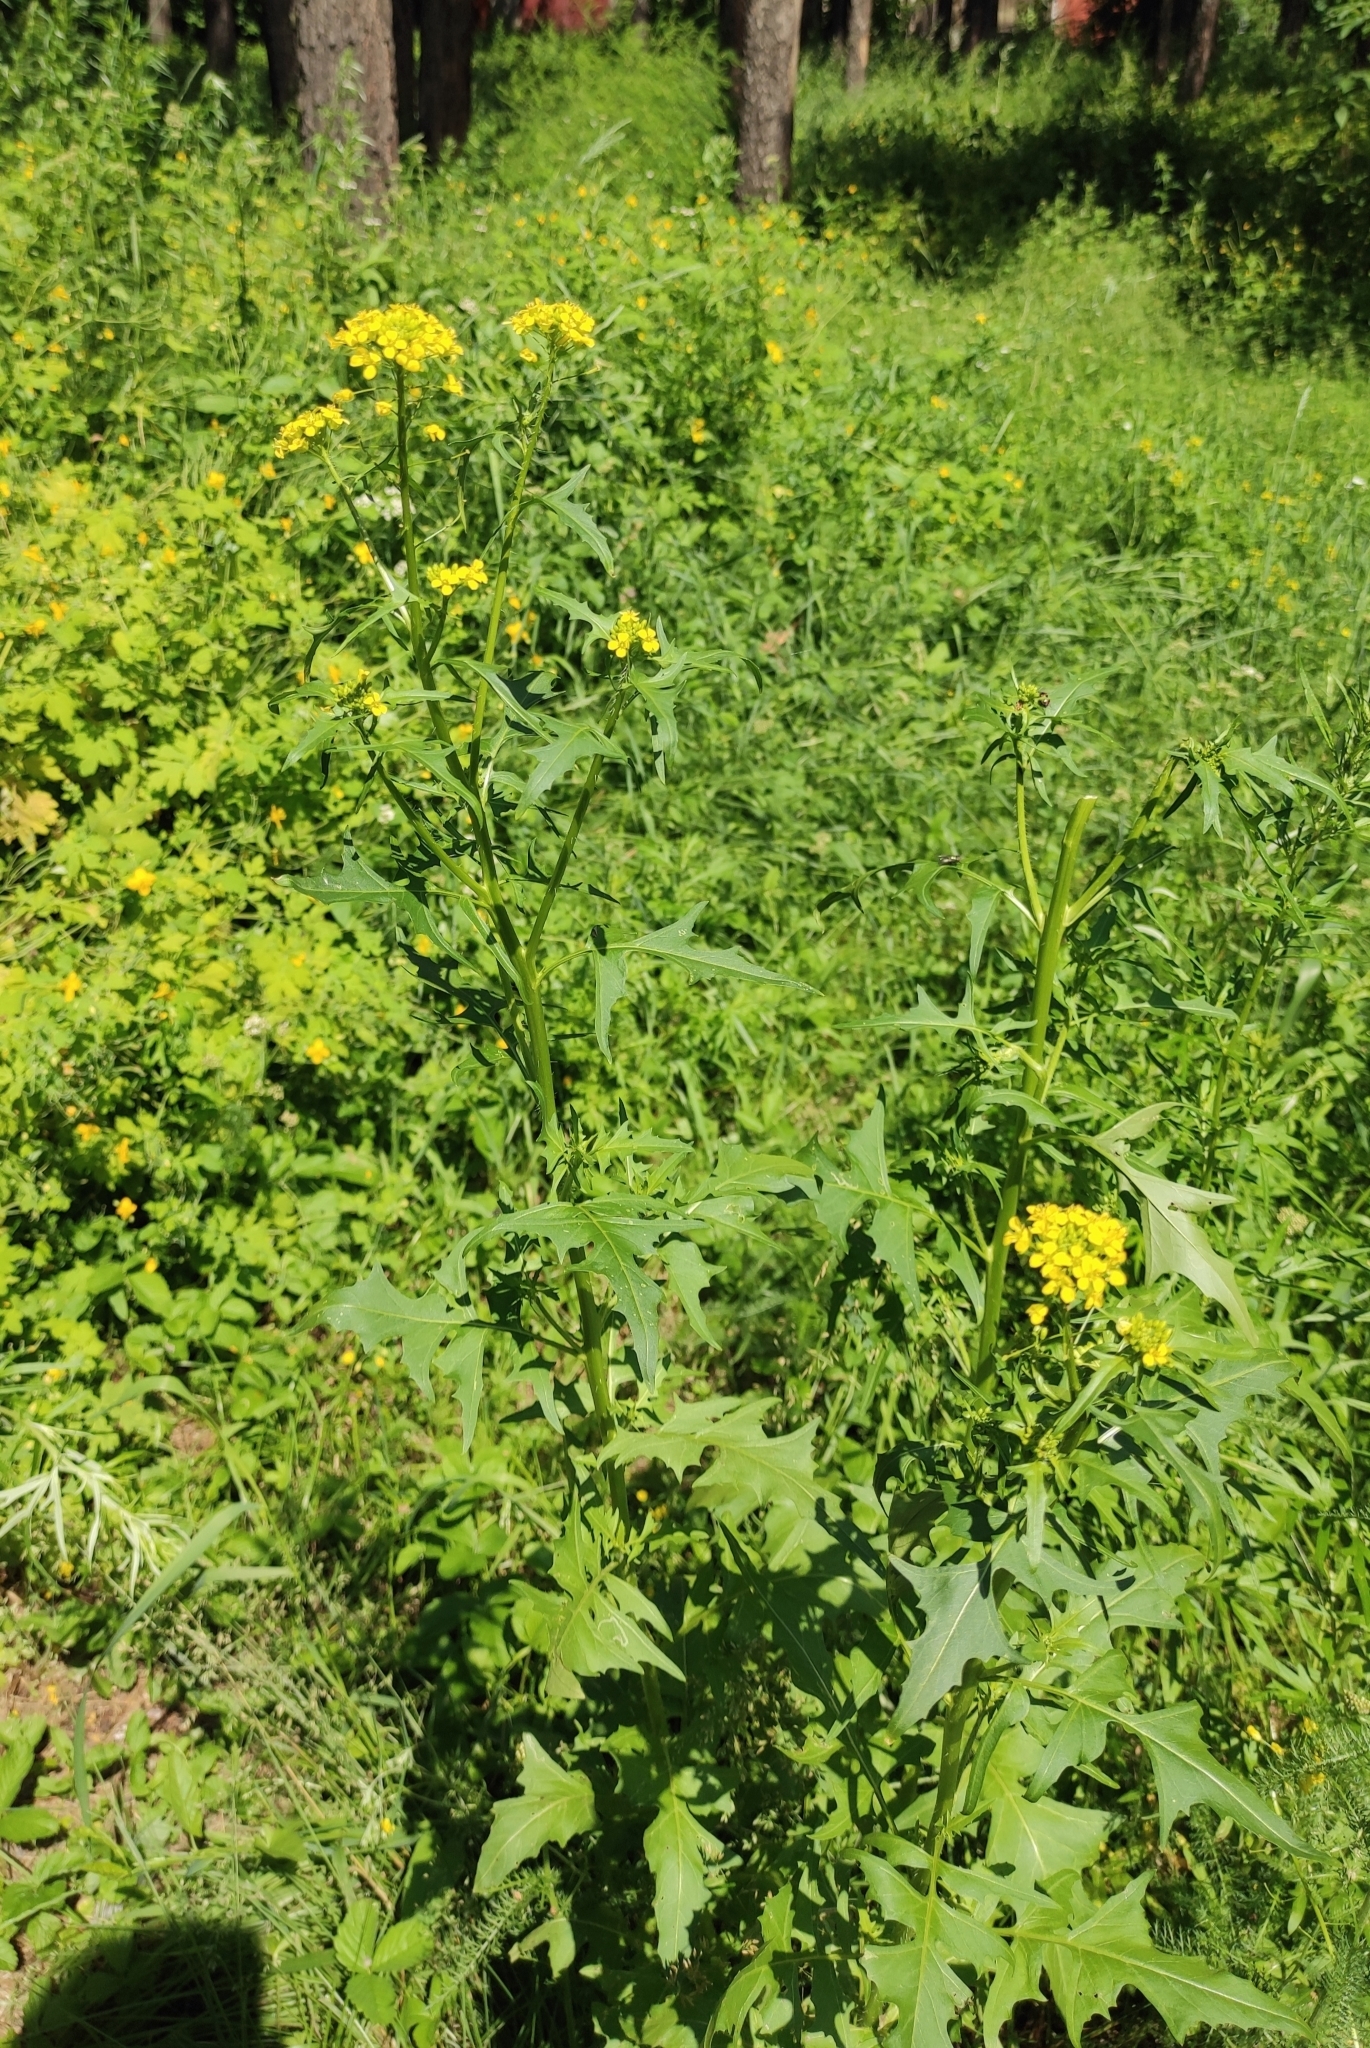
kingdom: Plantae
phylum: Tracheophyta
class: Magnoliopsida
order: Brassicales
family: Brassicaceae
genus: Sisymbrium
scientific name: Sisymbrium loeselii
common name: False london-rocket
